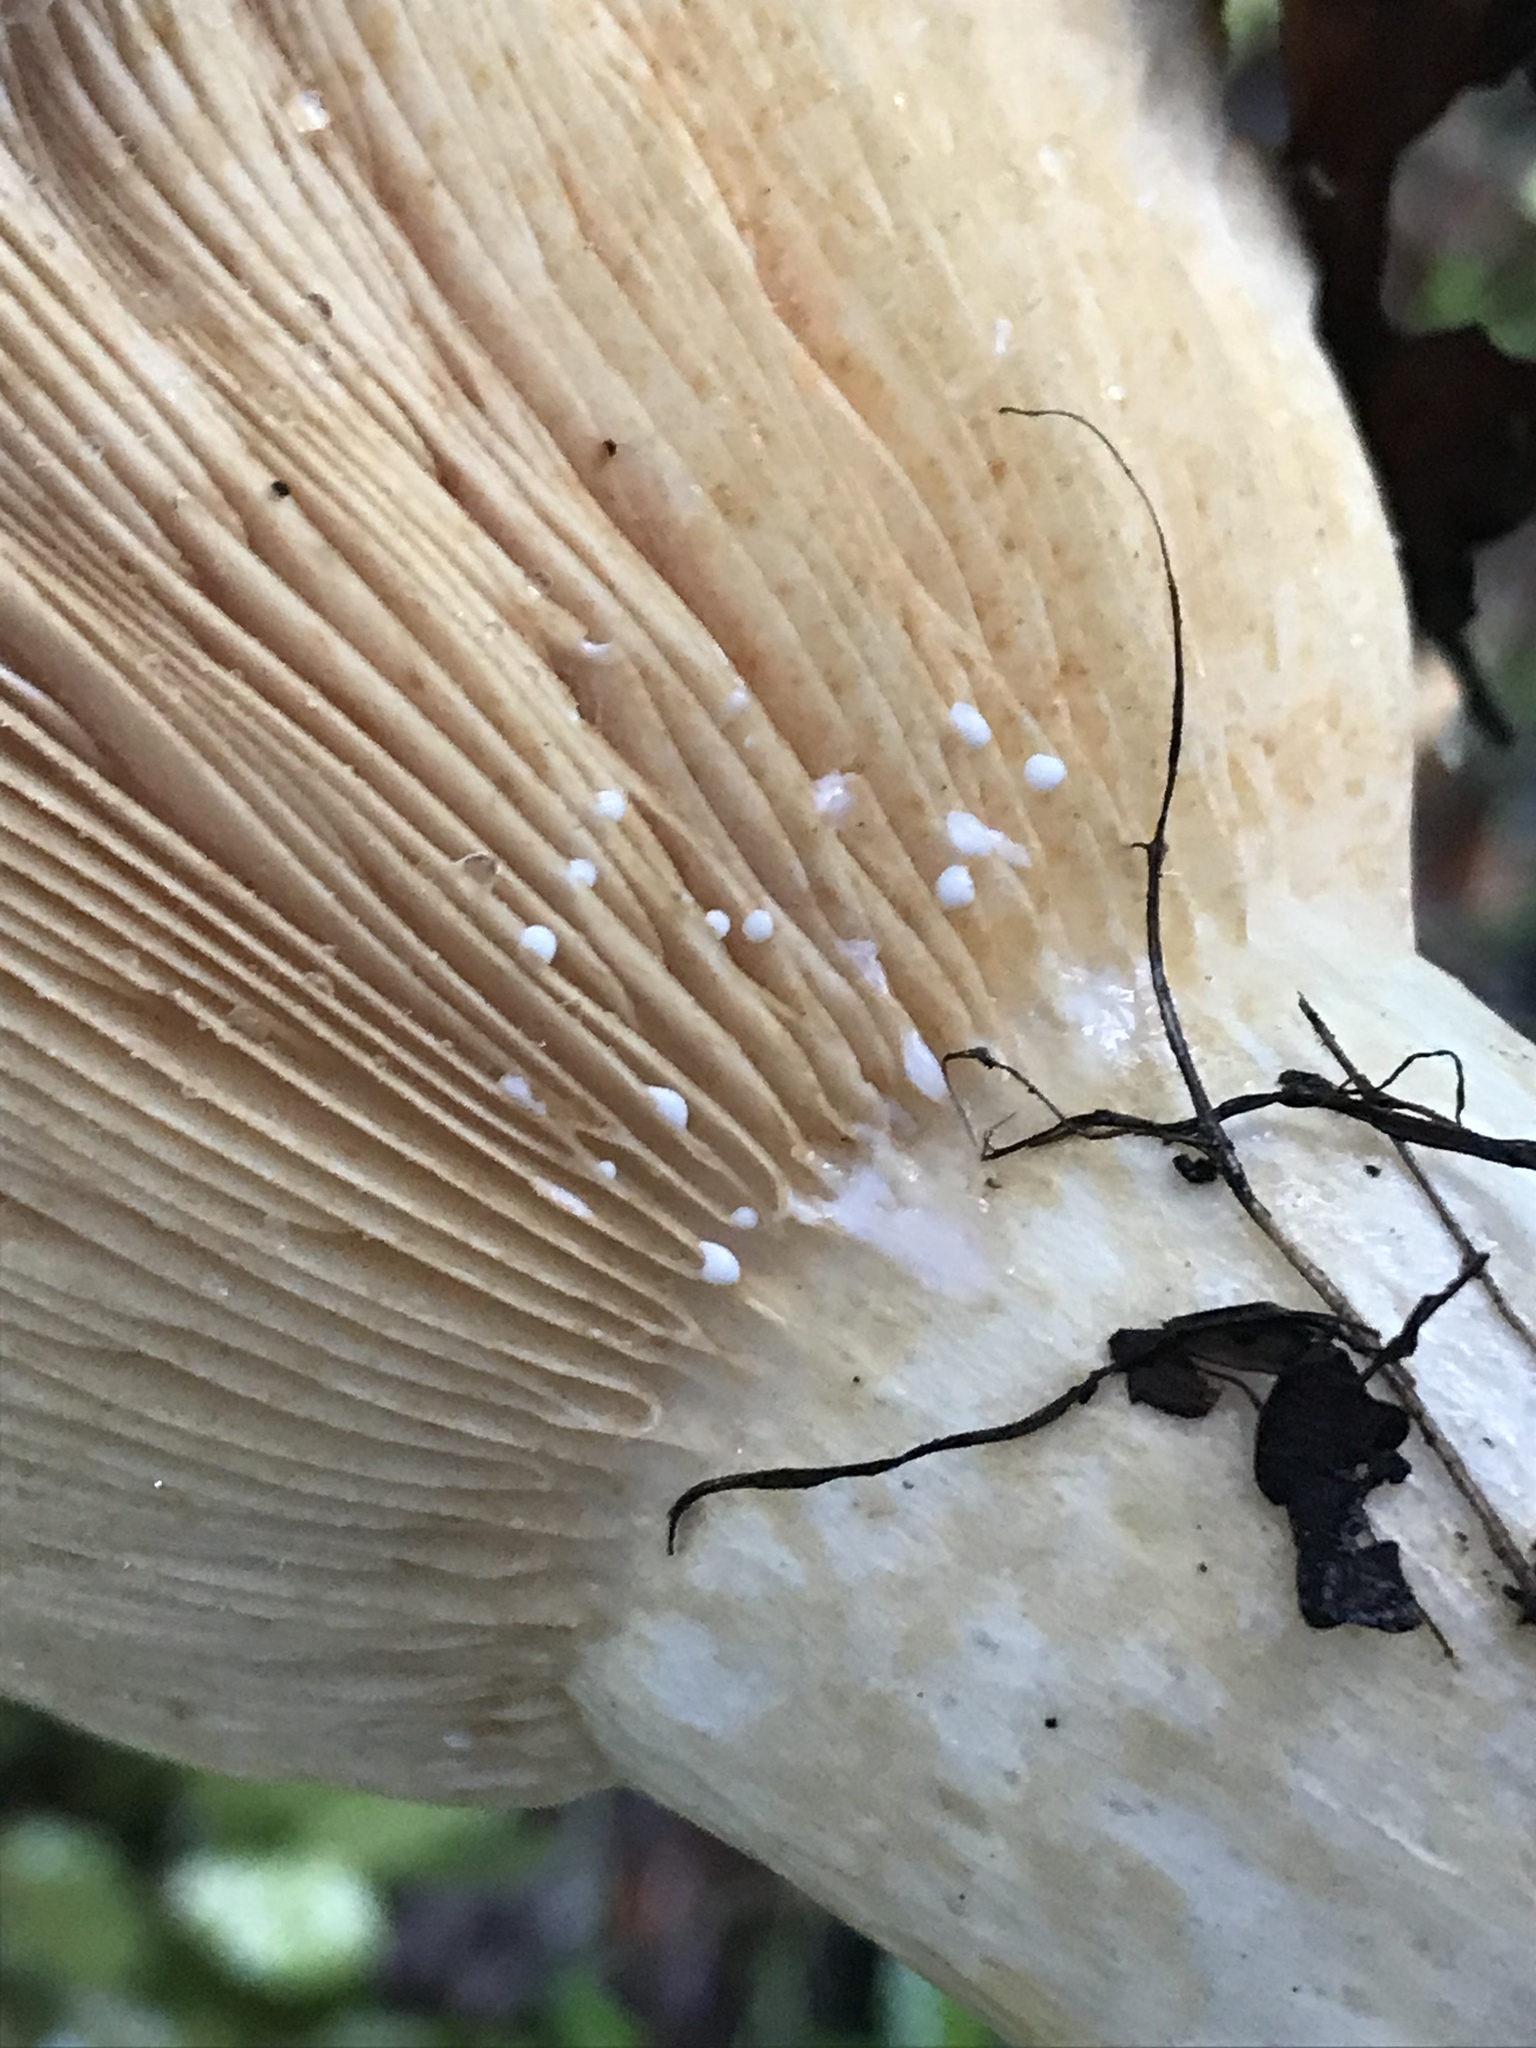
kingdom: Fungi
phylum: Basidiomycota
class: Agaricomycetes
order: Russulales
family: Russulaceae
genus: Lactarius
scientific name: Lactarius alnicola
